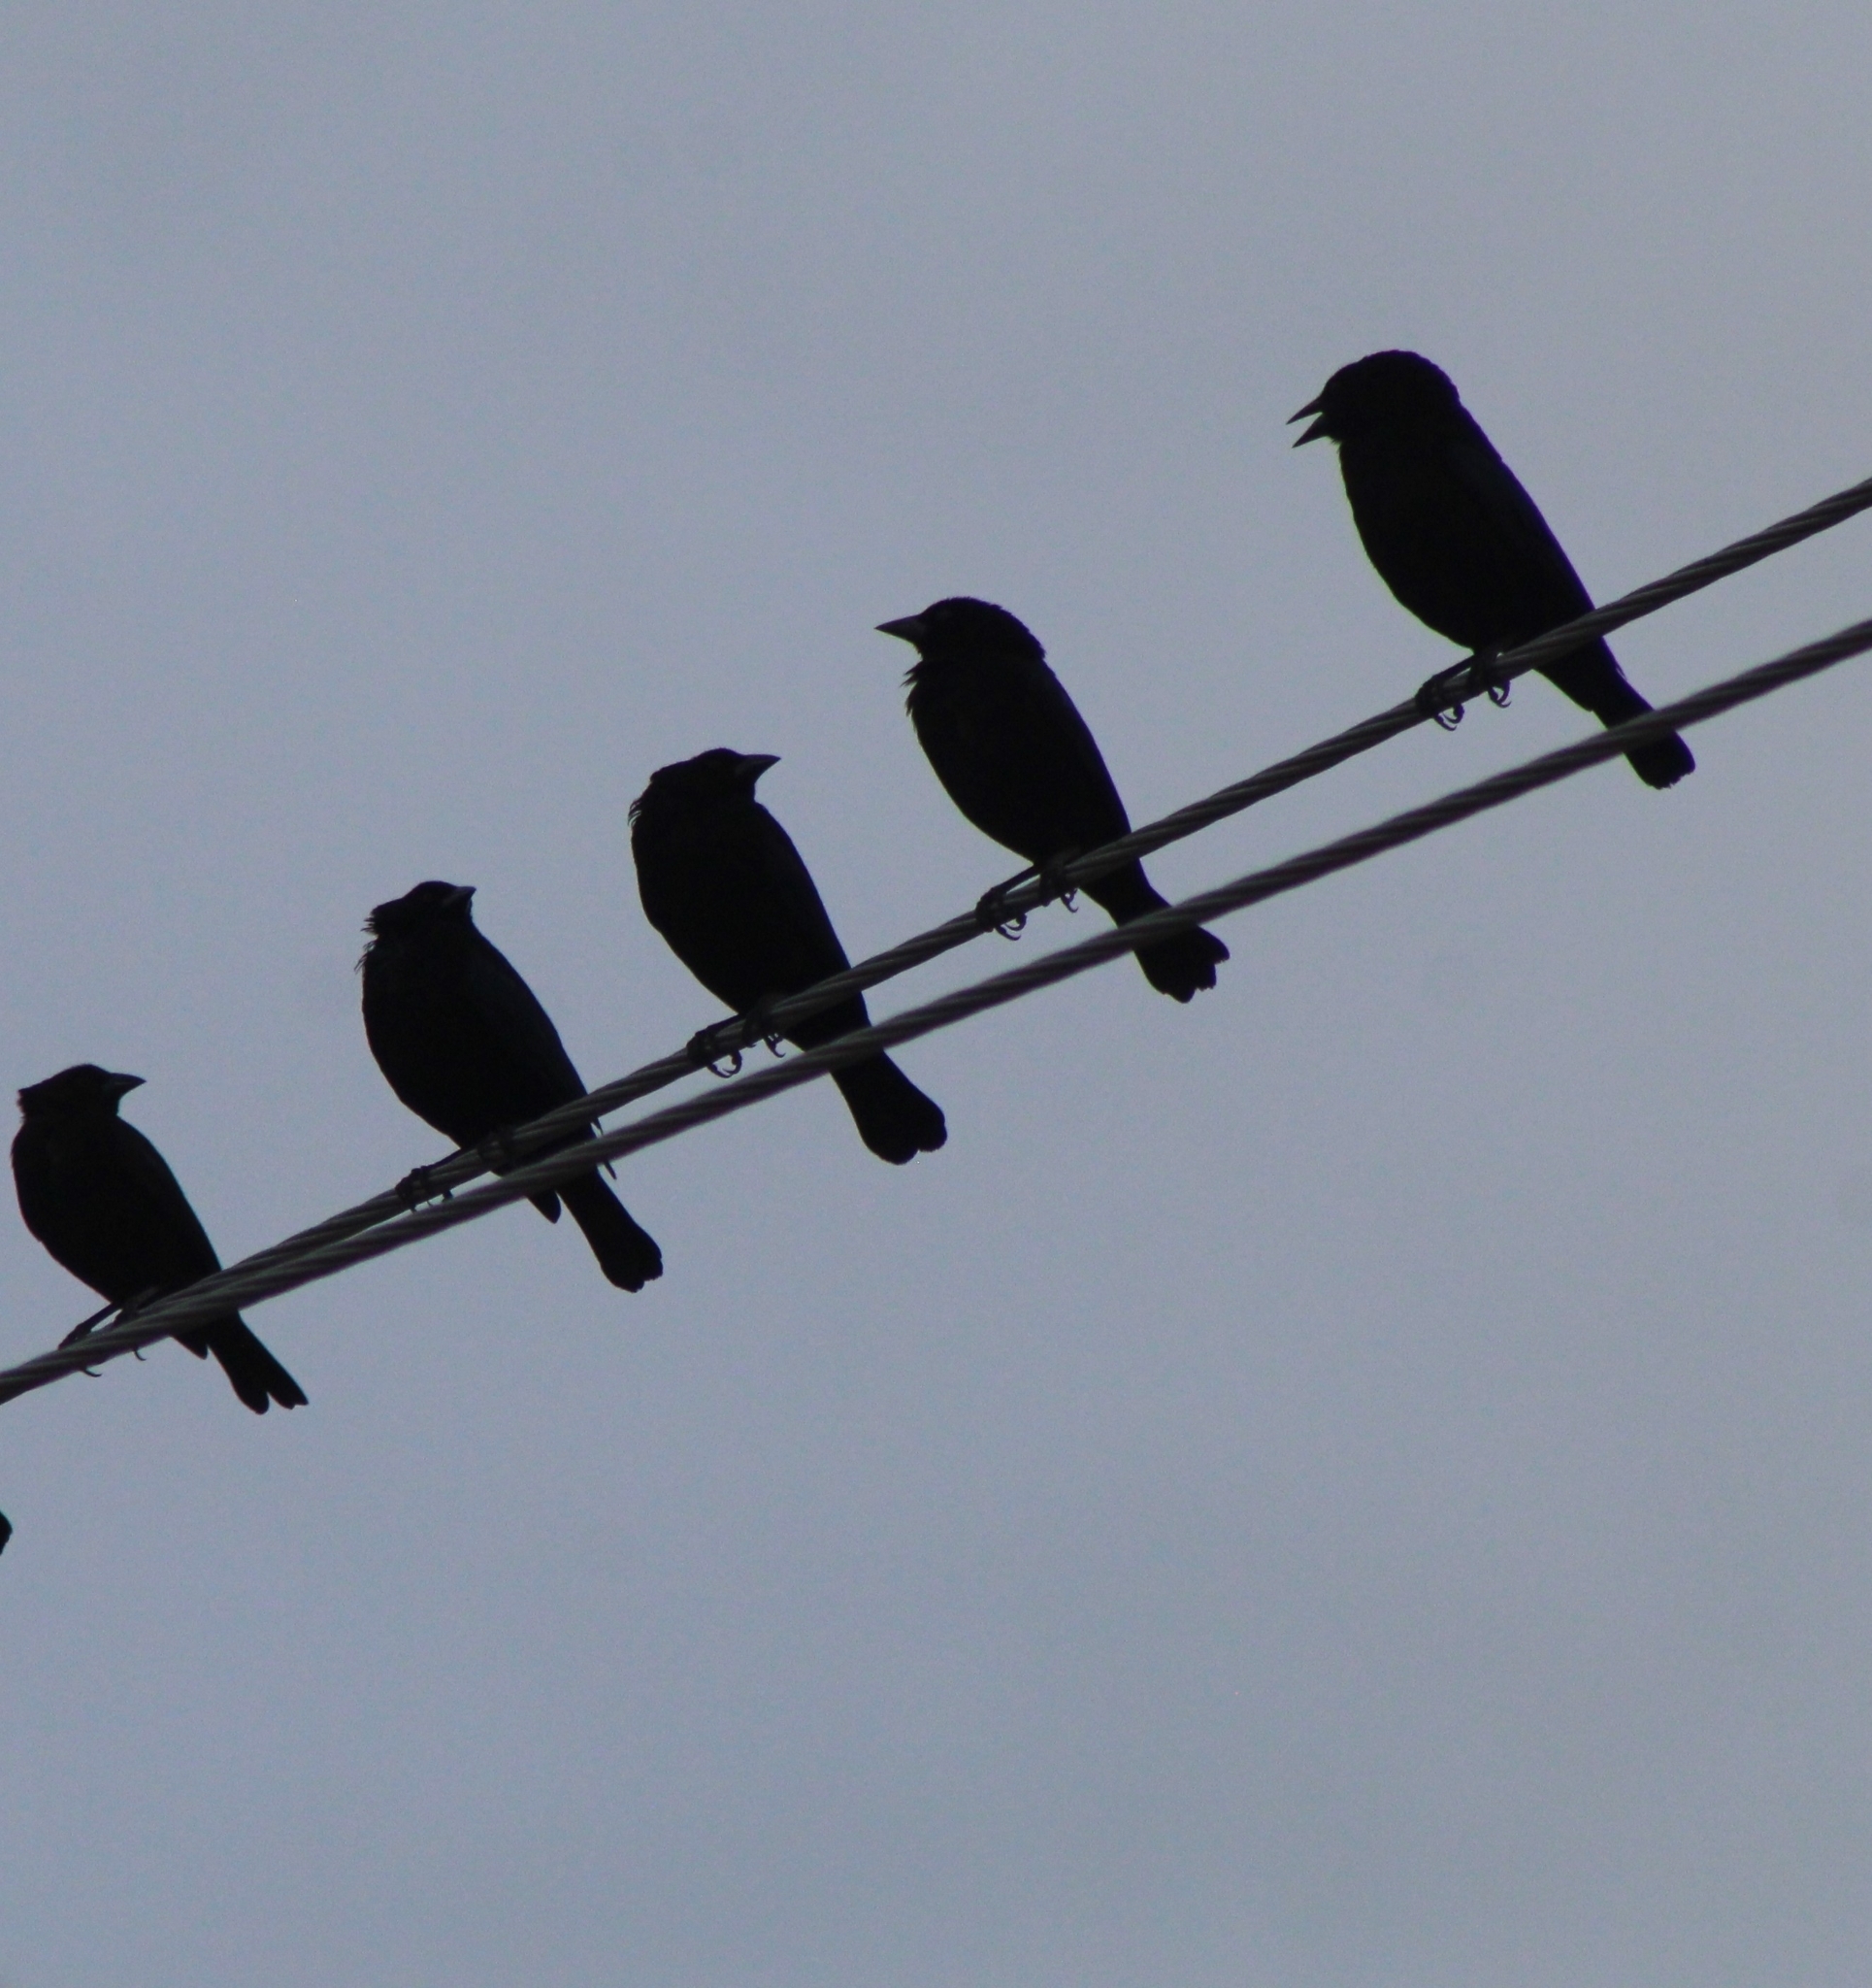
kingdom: Animalia
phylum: Chordata
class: Aves
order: Passeriformes
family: Icteridae
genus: Molothrus
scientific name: Molothrus aeneus
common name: Bronzed cowbird
